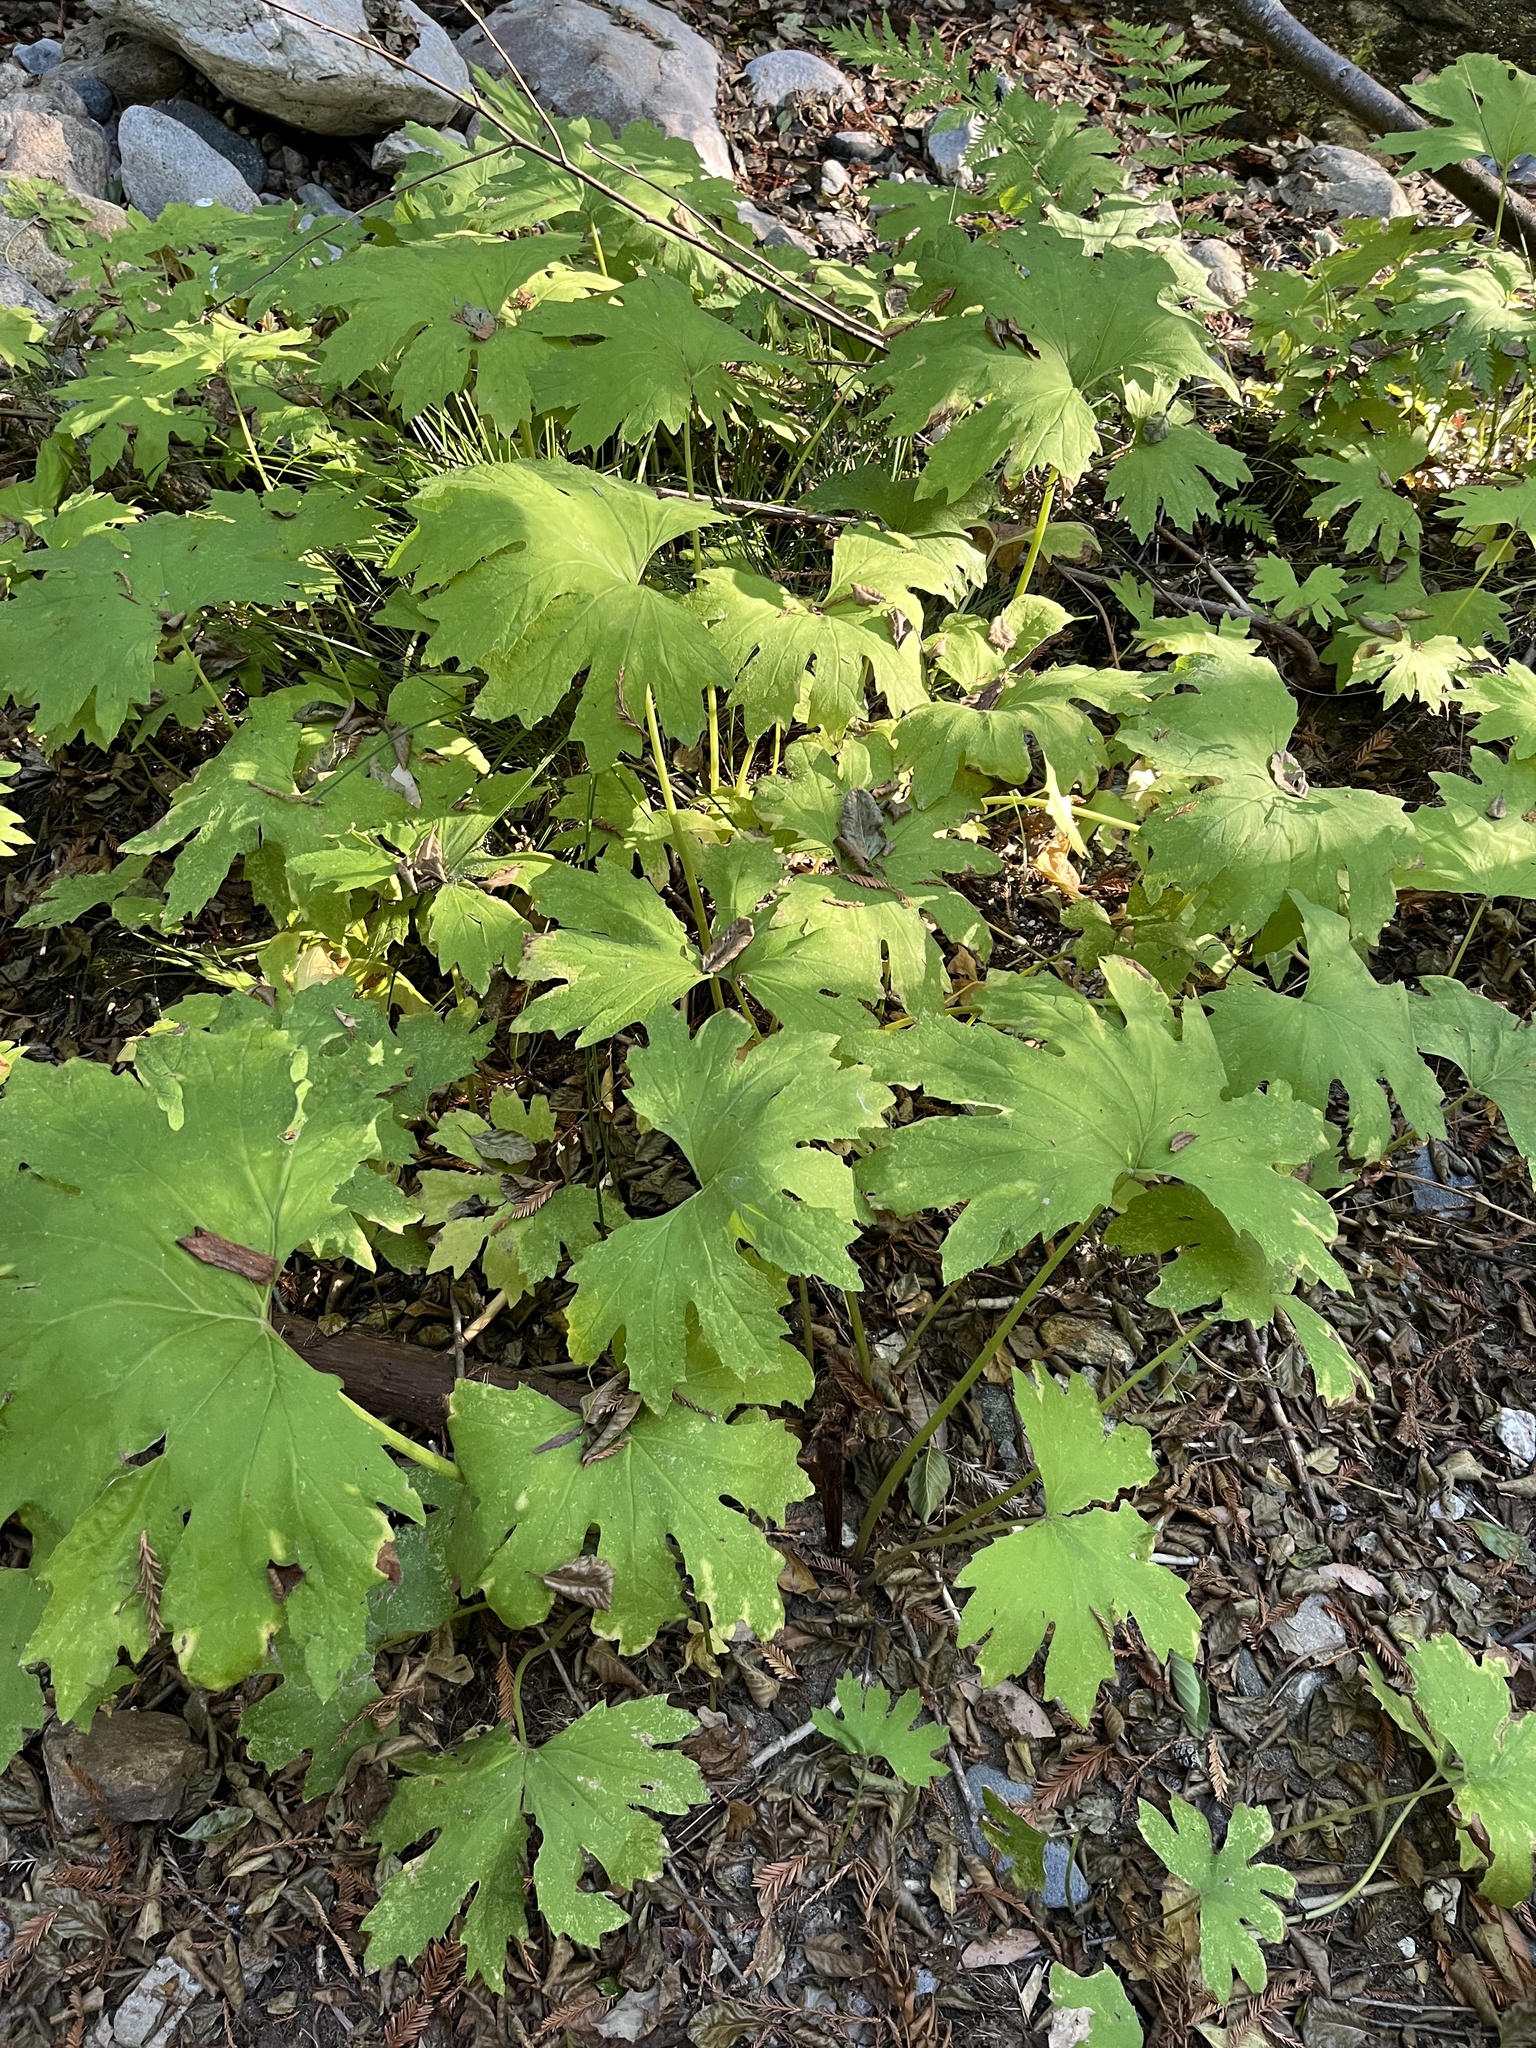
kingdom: Plantae
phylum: Tracheophyta
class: Magnoliopsida
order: Asterales
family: Asteraceae
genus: Petasites
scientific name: Petasites frigidus
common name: Arctic butterbur
